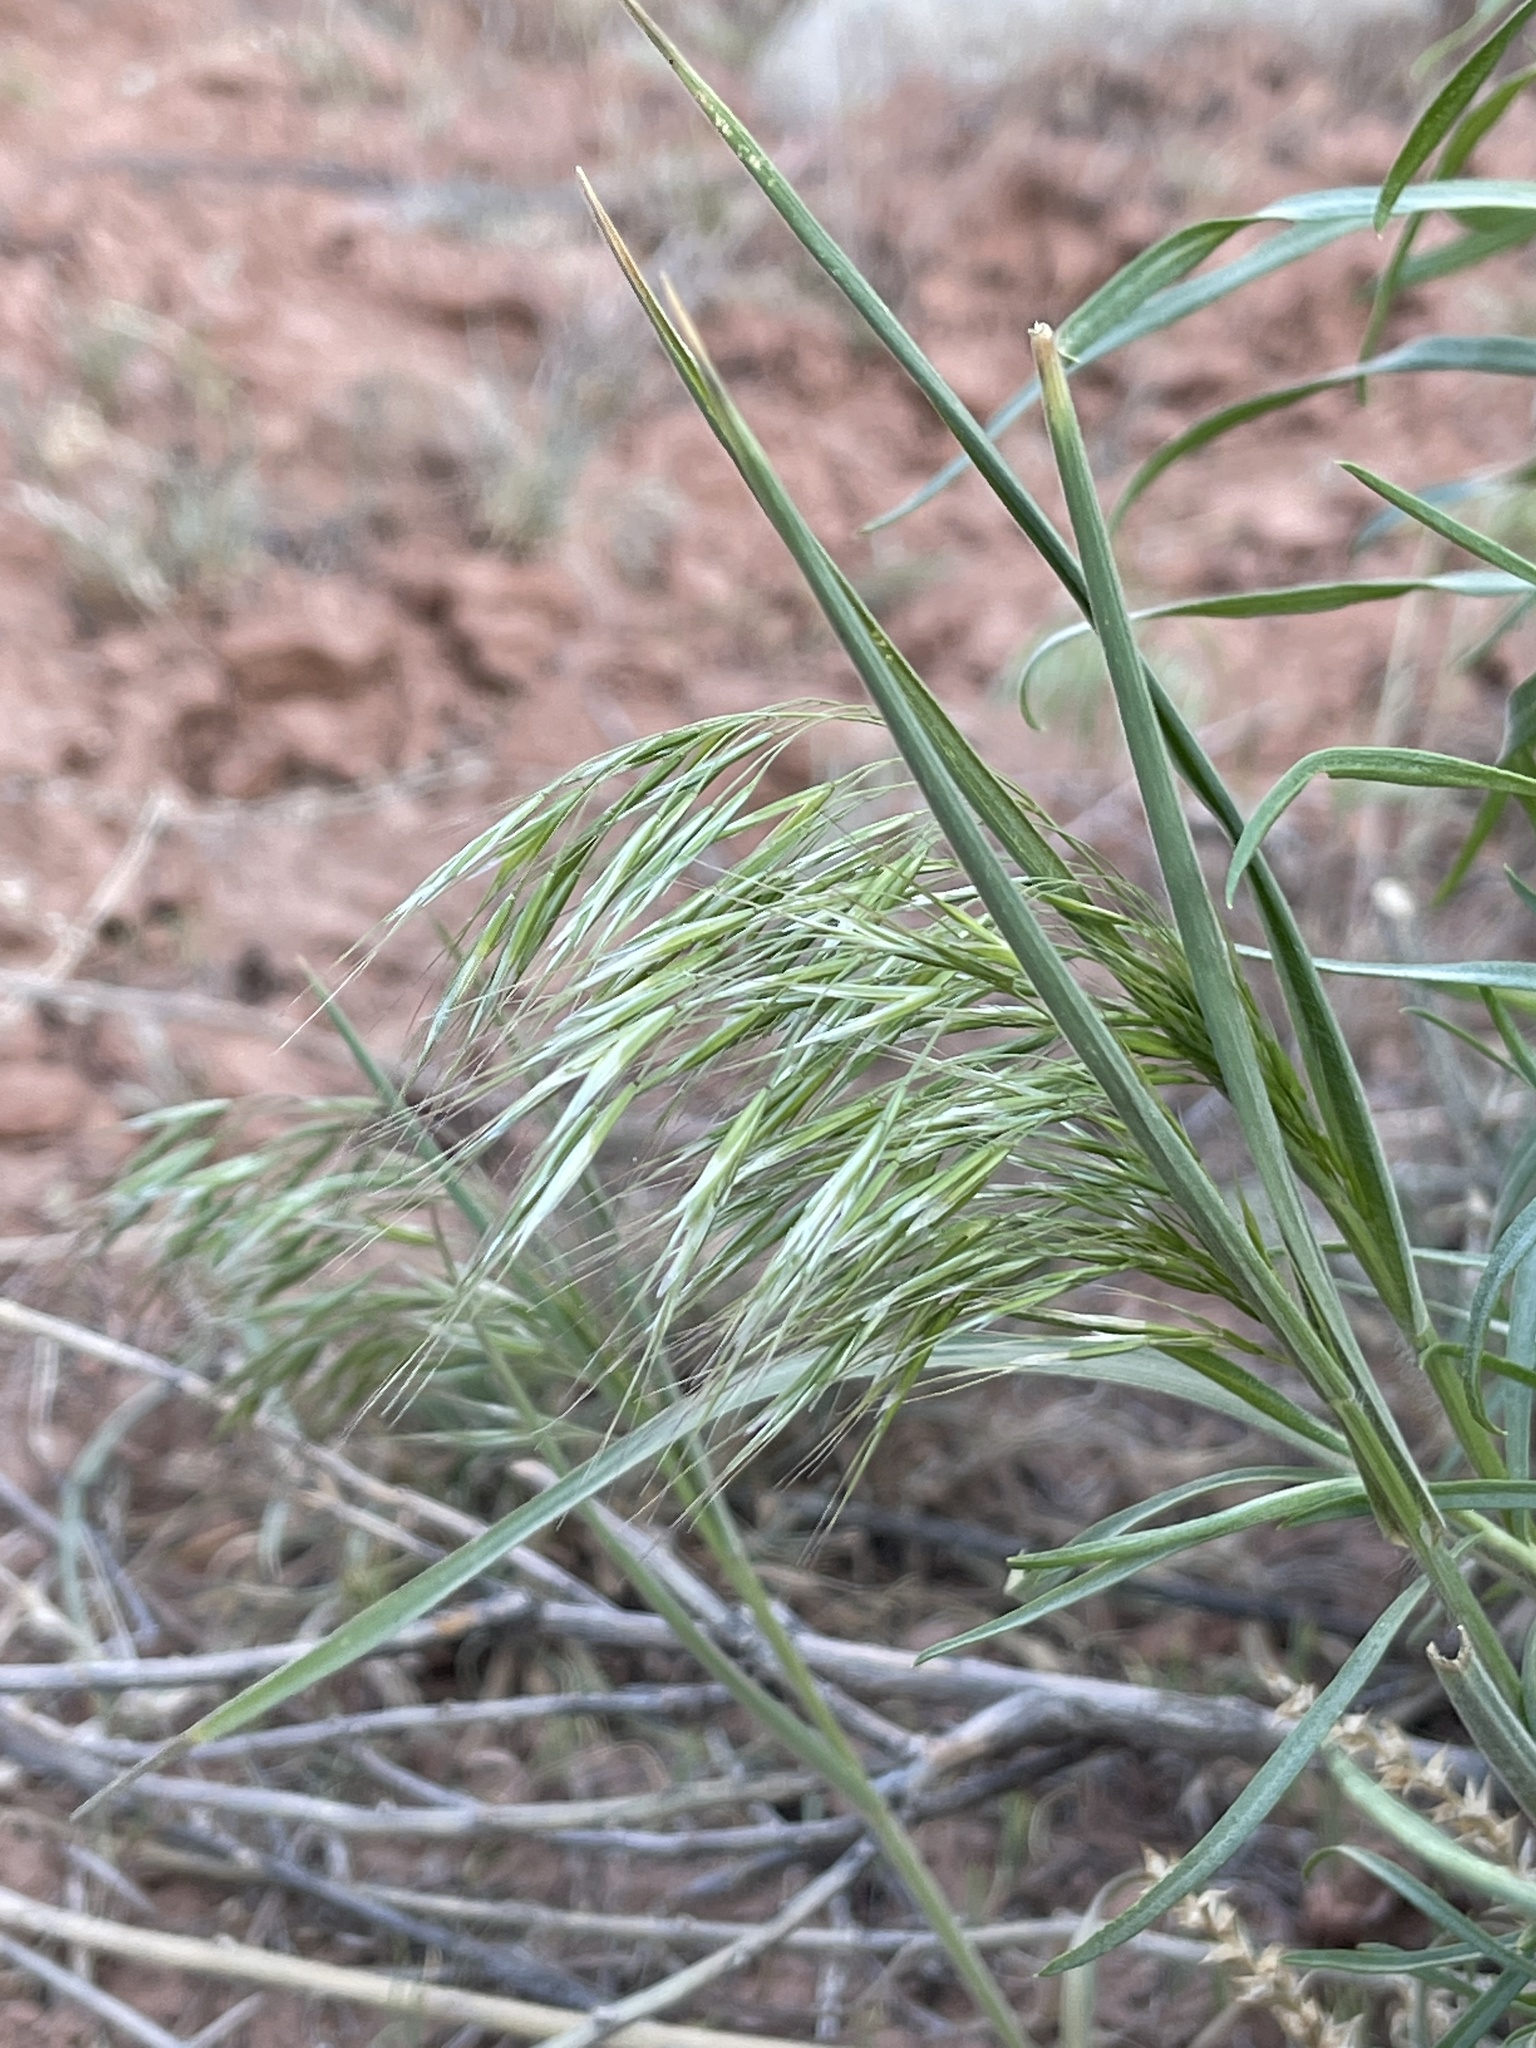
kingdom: Plantae
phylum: Tracheophyta
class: Liliopsida
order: Poales
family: Poaceae
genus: Bromus
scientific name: Bromus tectorum
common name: Cheatgrass
